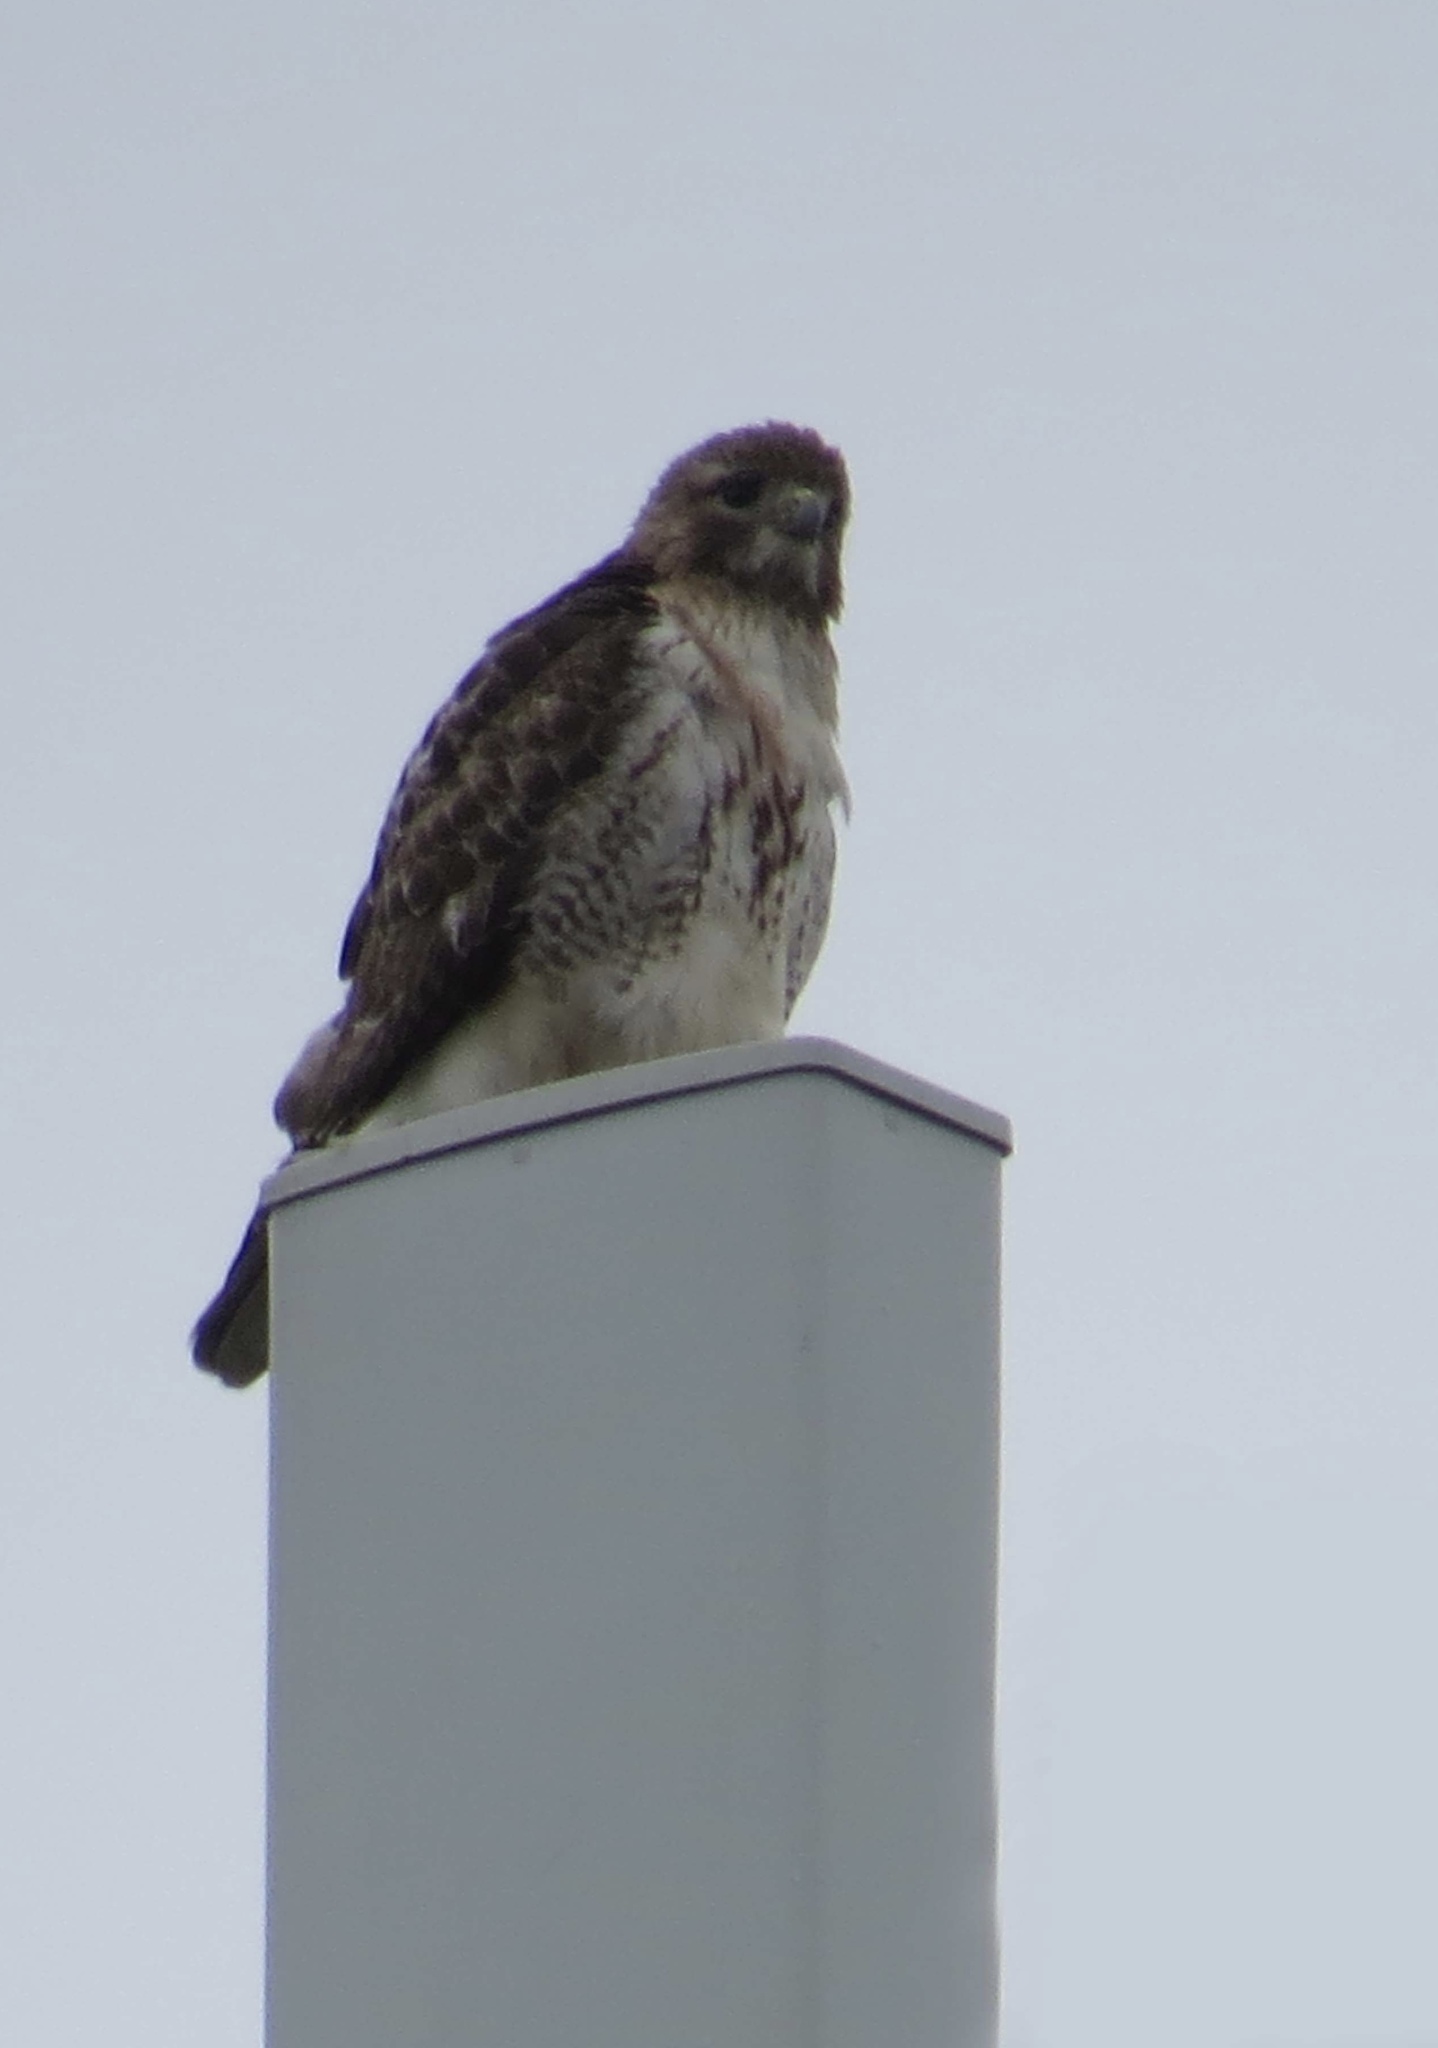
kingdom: Animalia
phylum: Chordata
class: Aves
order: Accipitriformes
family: Accipitridae
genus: Buteo
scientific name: Buteo jamaicensis
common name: Red-tailed hawk
